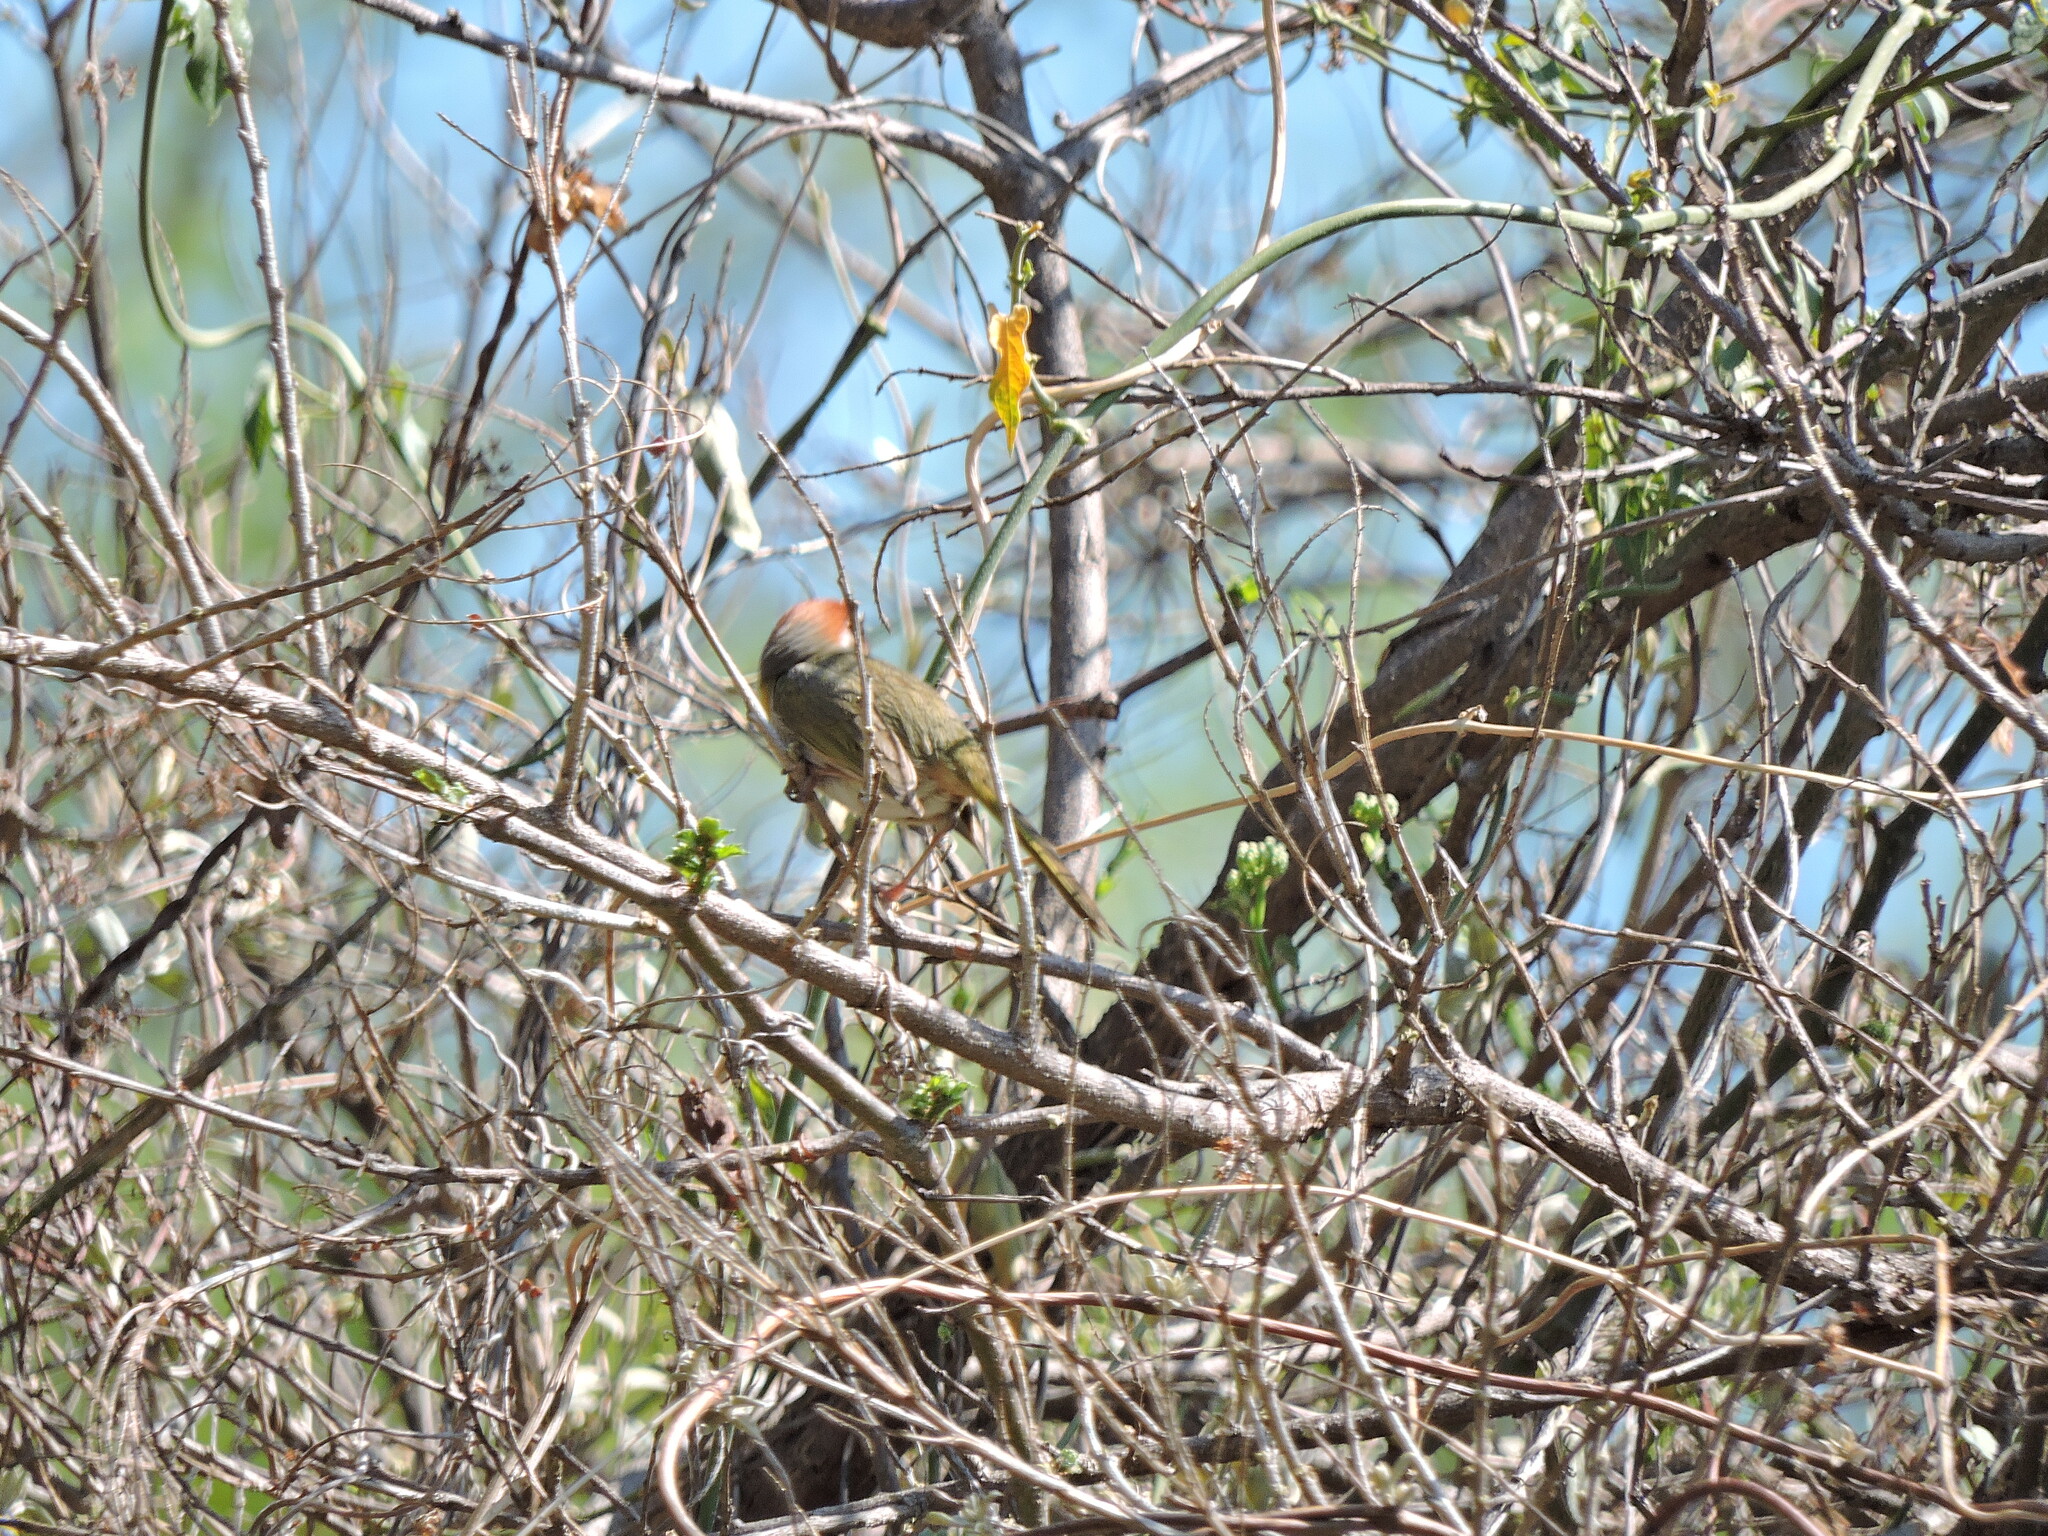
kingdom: Animalia
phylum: Chordata
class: Aves
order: Passeriformes
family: Parulidae
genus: Basileuterus
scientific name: Basileuterus rufifrons
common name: Rufous-capped warbler
